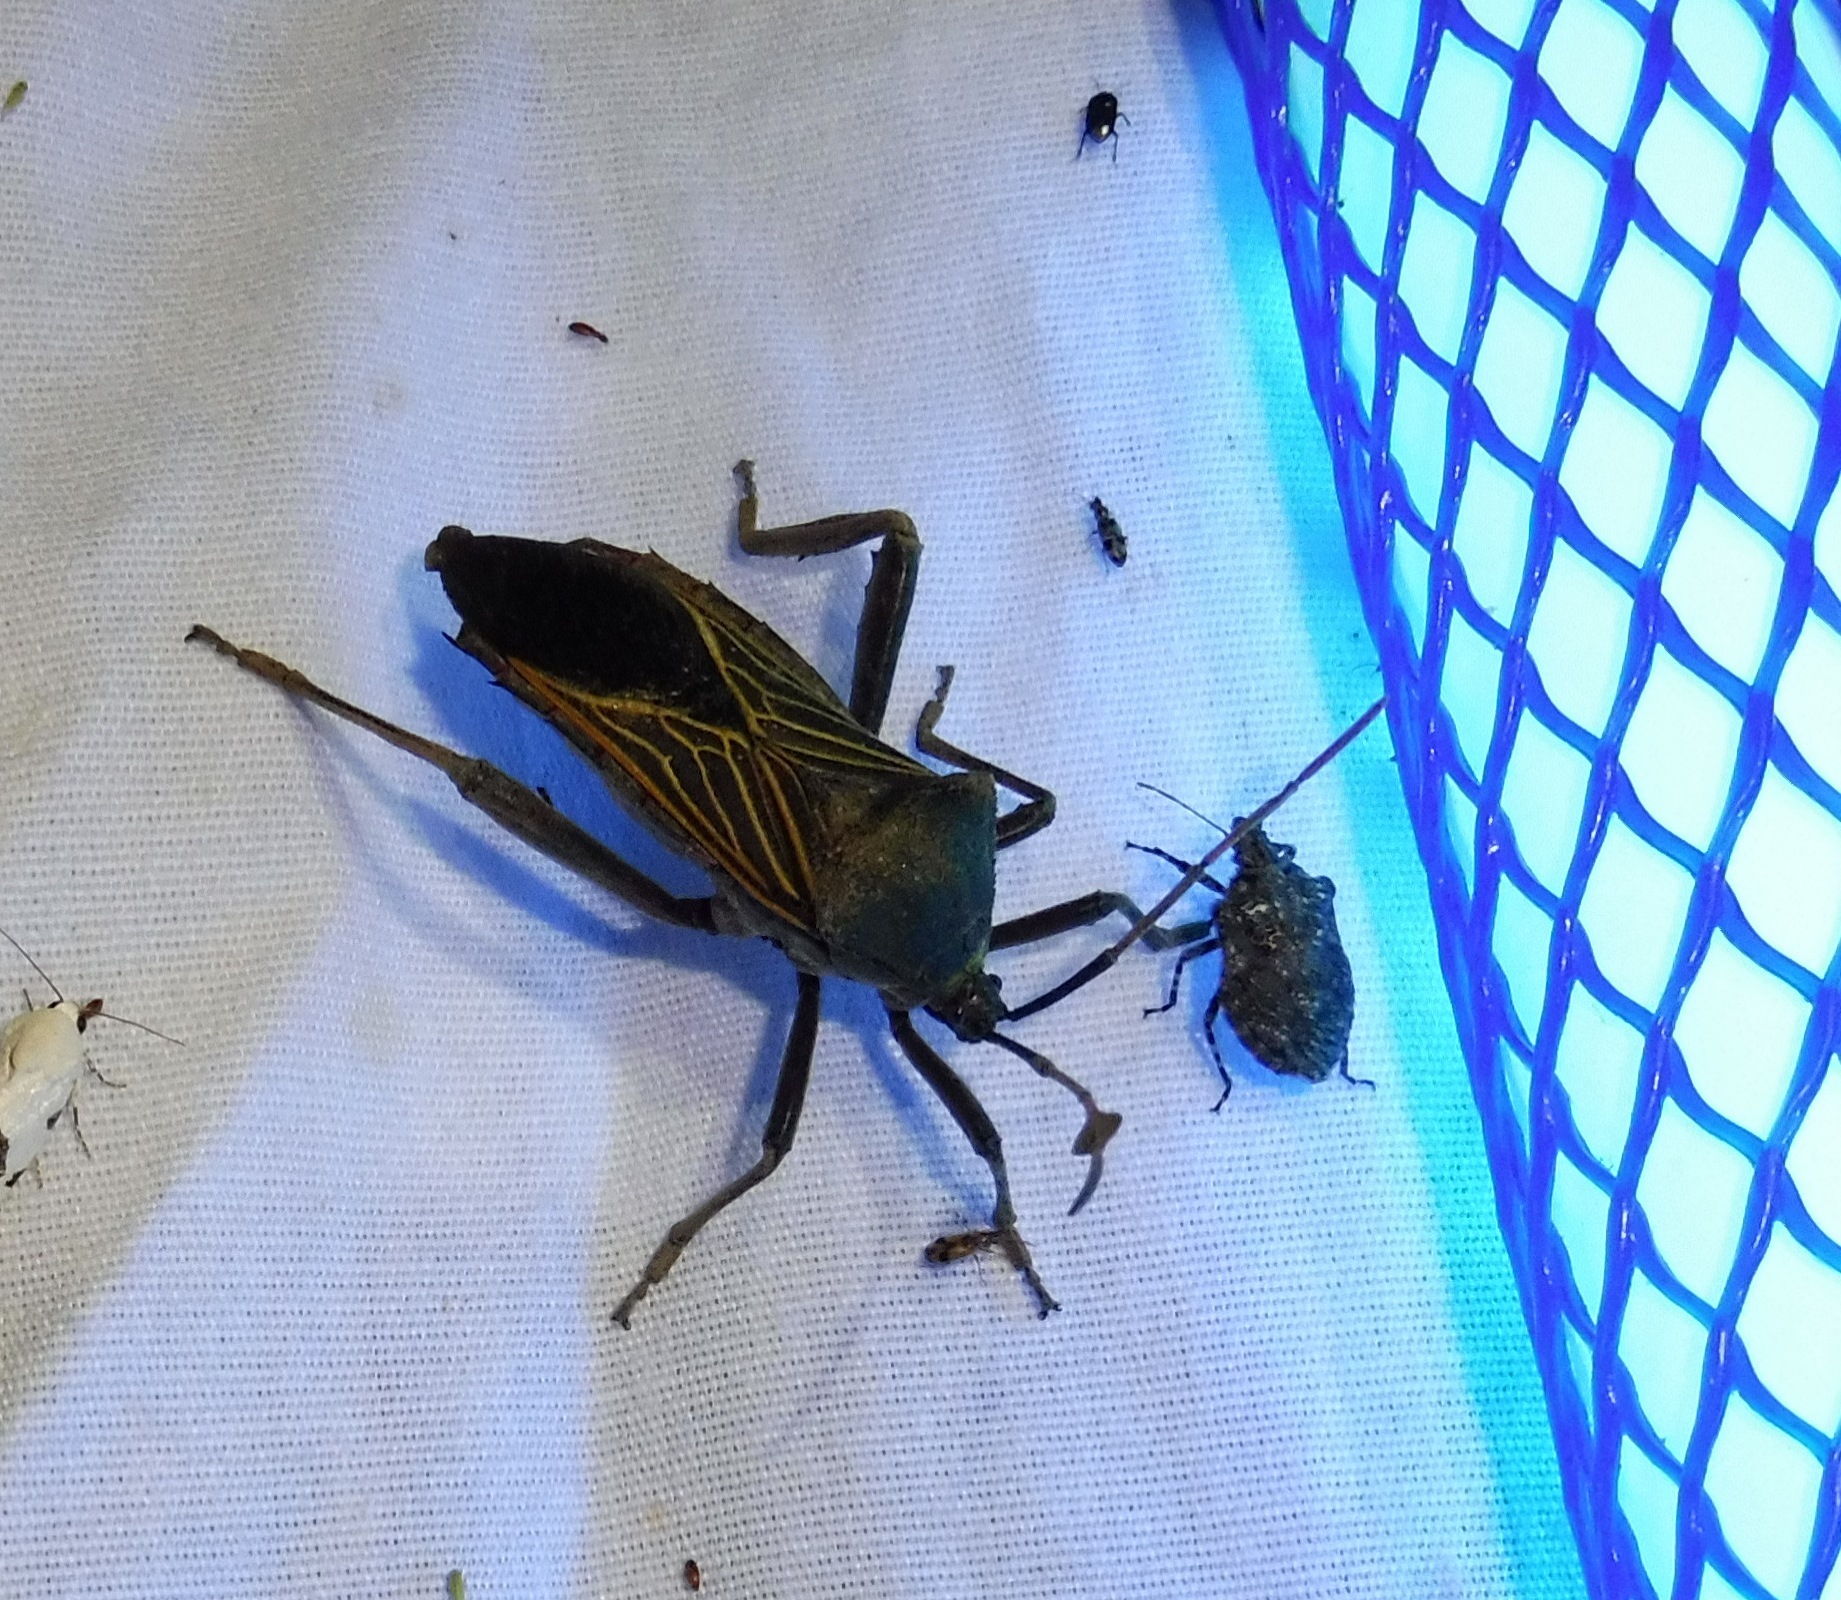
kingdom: Animalia
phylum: Arthropoda
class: Insecta
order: Hemiptera
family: Coreidae
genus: Thasus
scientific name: Thasus neocalifornicus
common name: Giant mesquite bug
